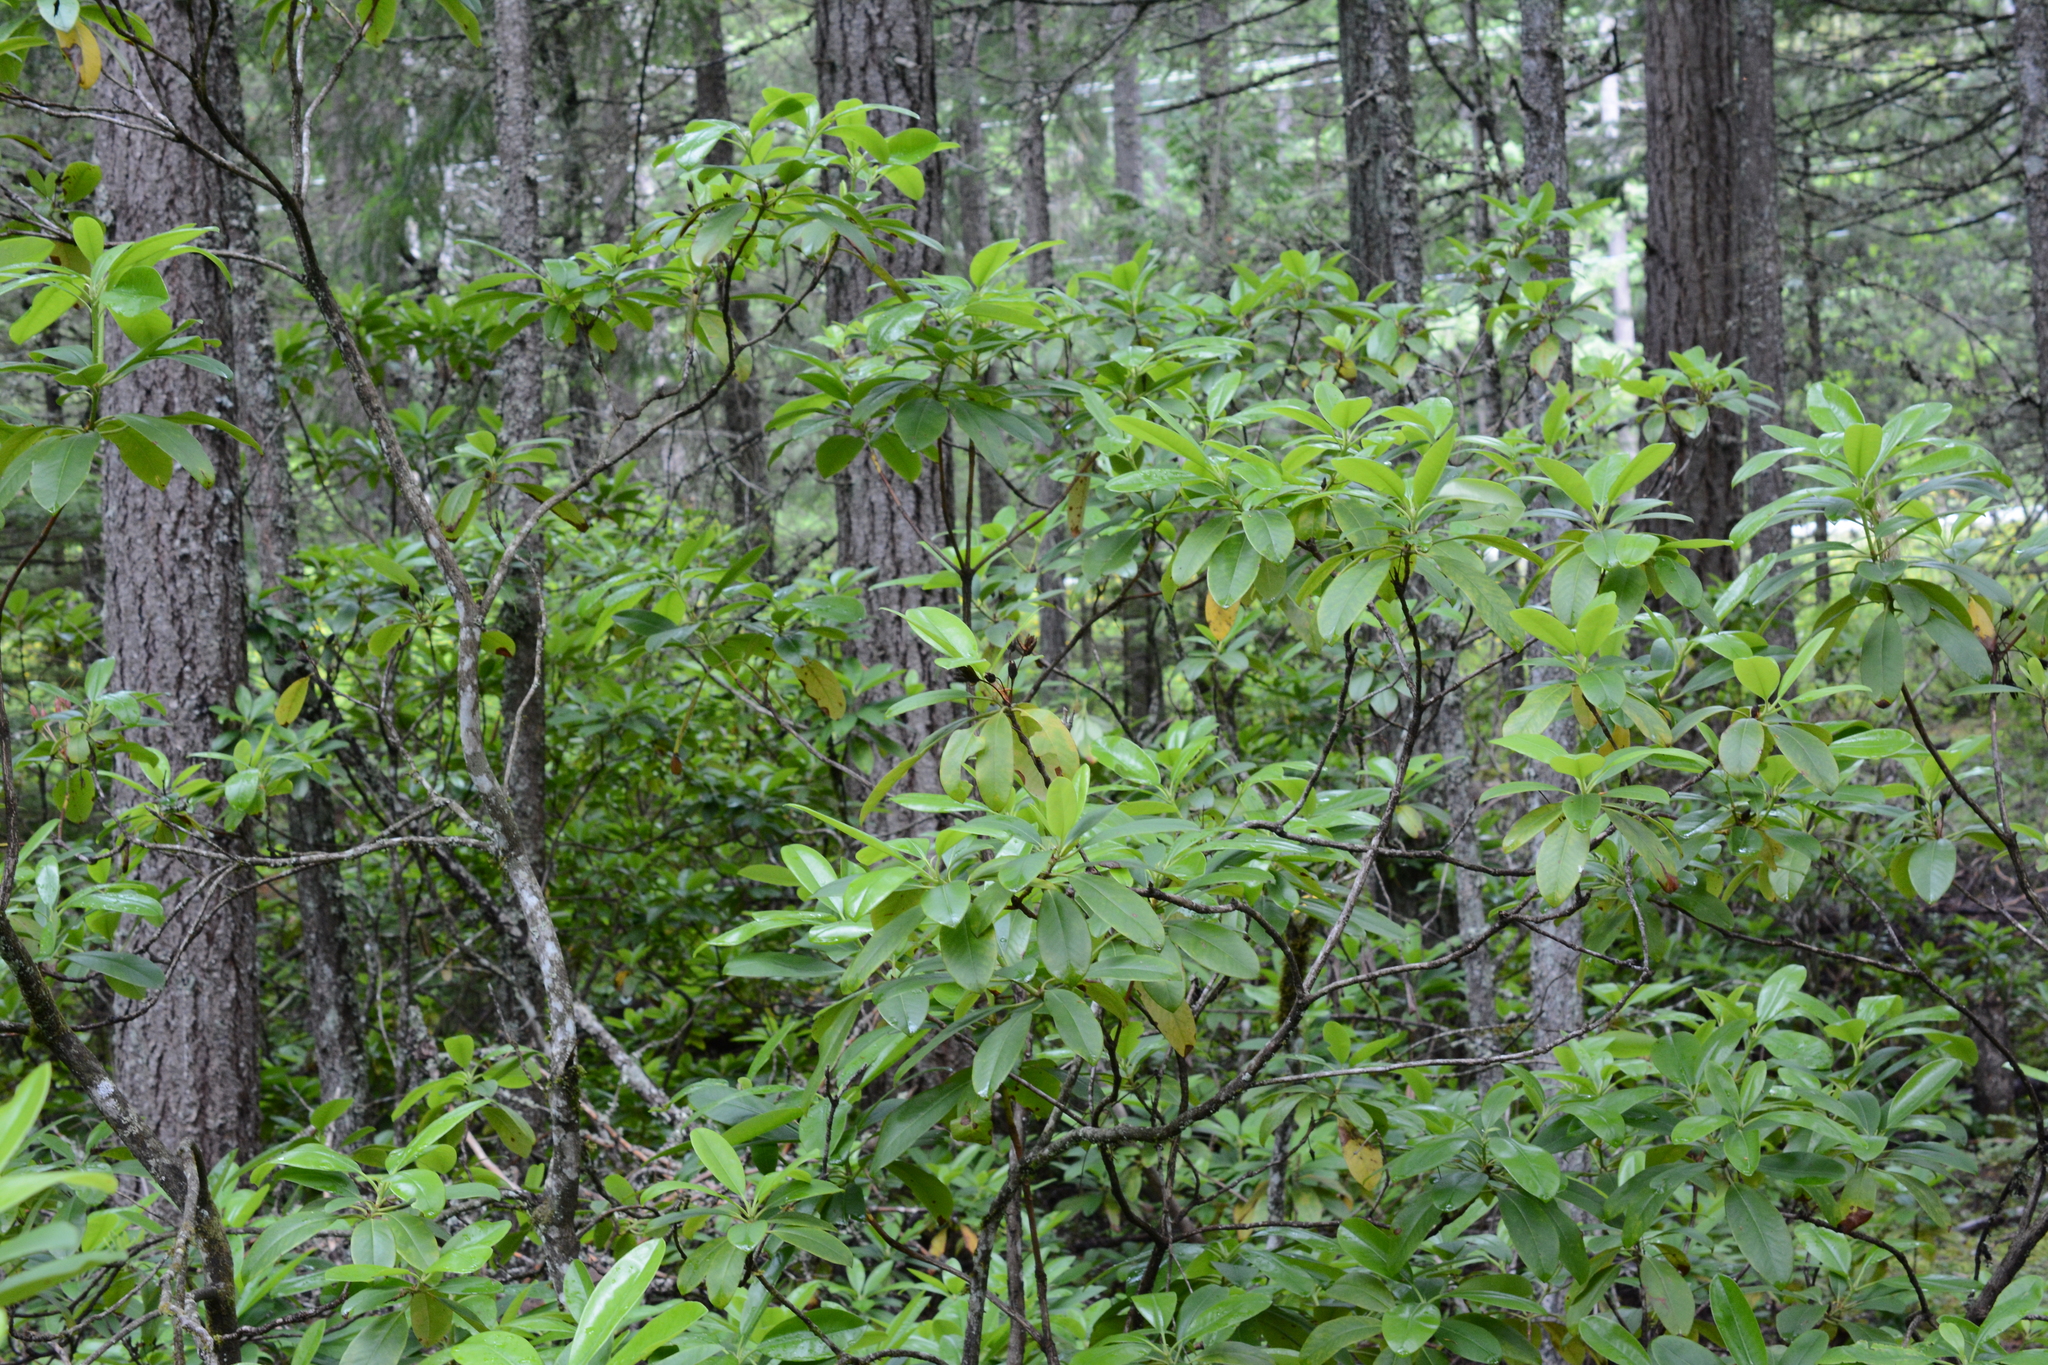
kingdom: Plantae
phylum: Tracheophyta
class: Magnoliopsida
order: Ericales
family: Ericaceae
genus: Rhododendron
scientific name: Rhododendron macrophyllum
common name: California rose bay
